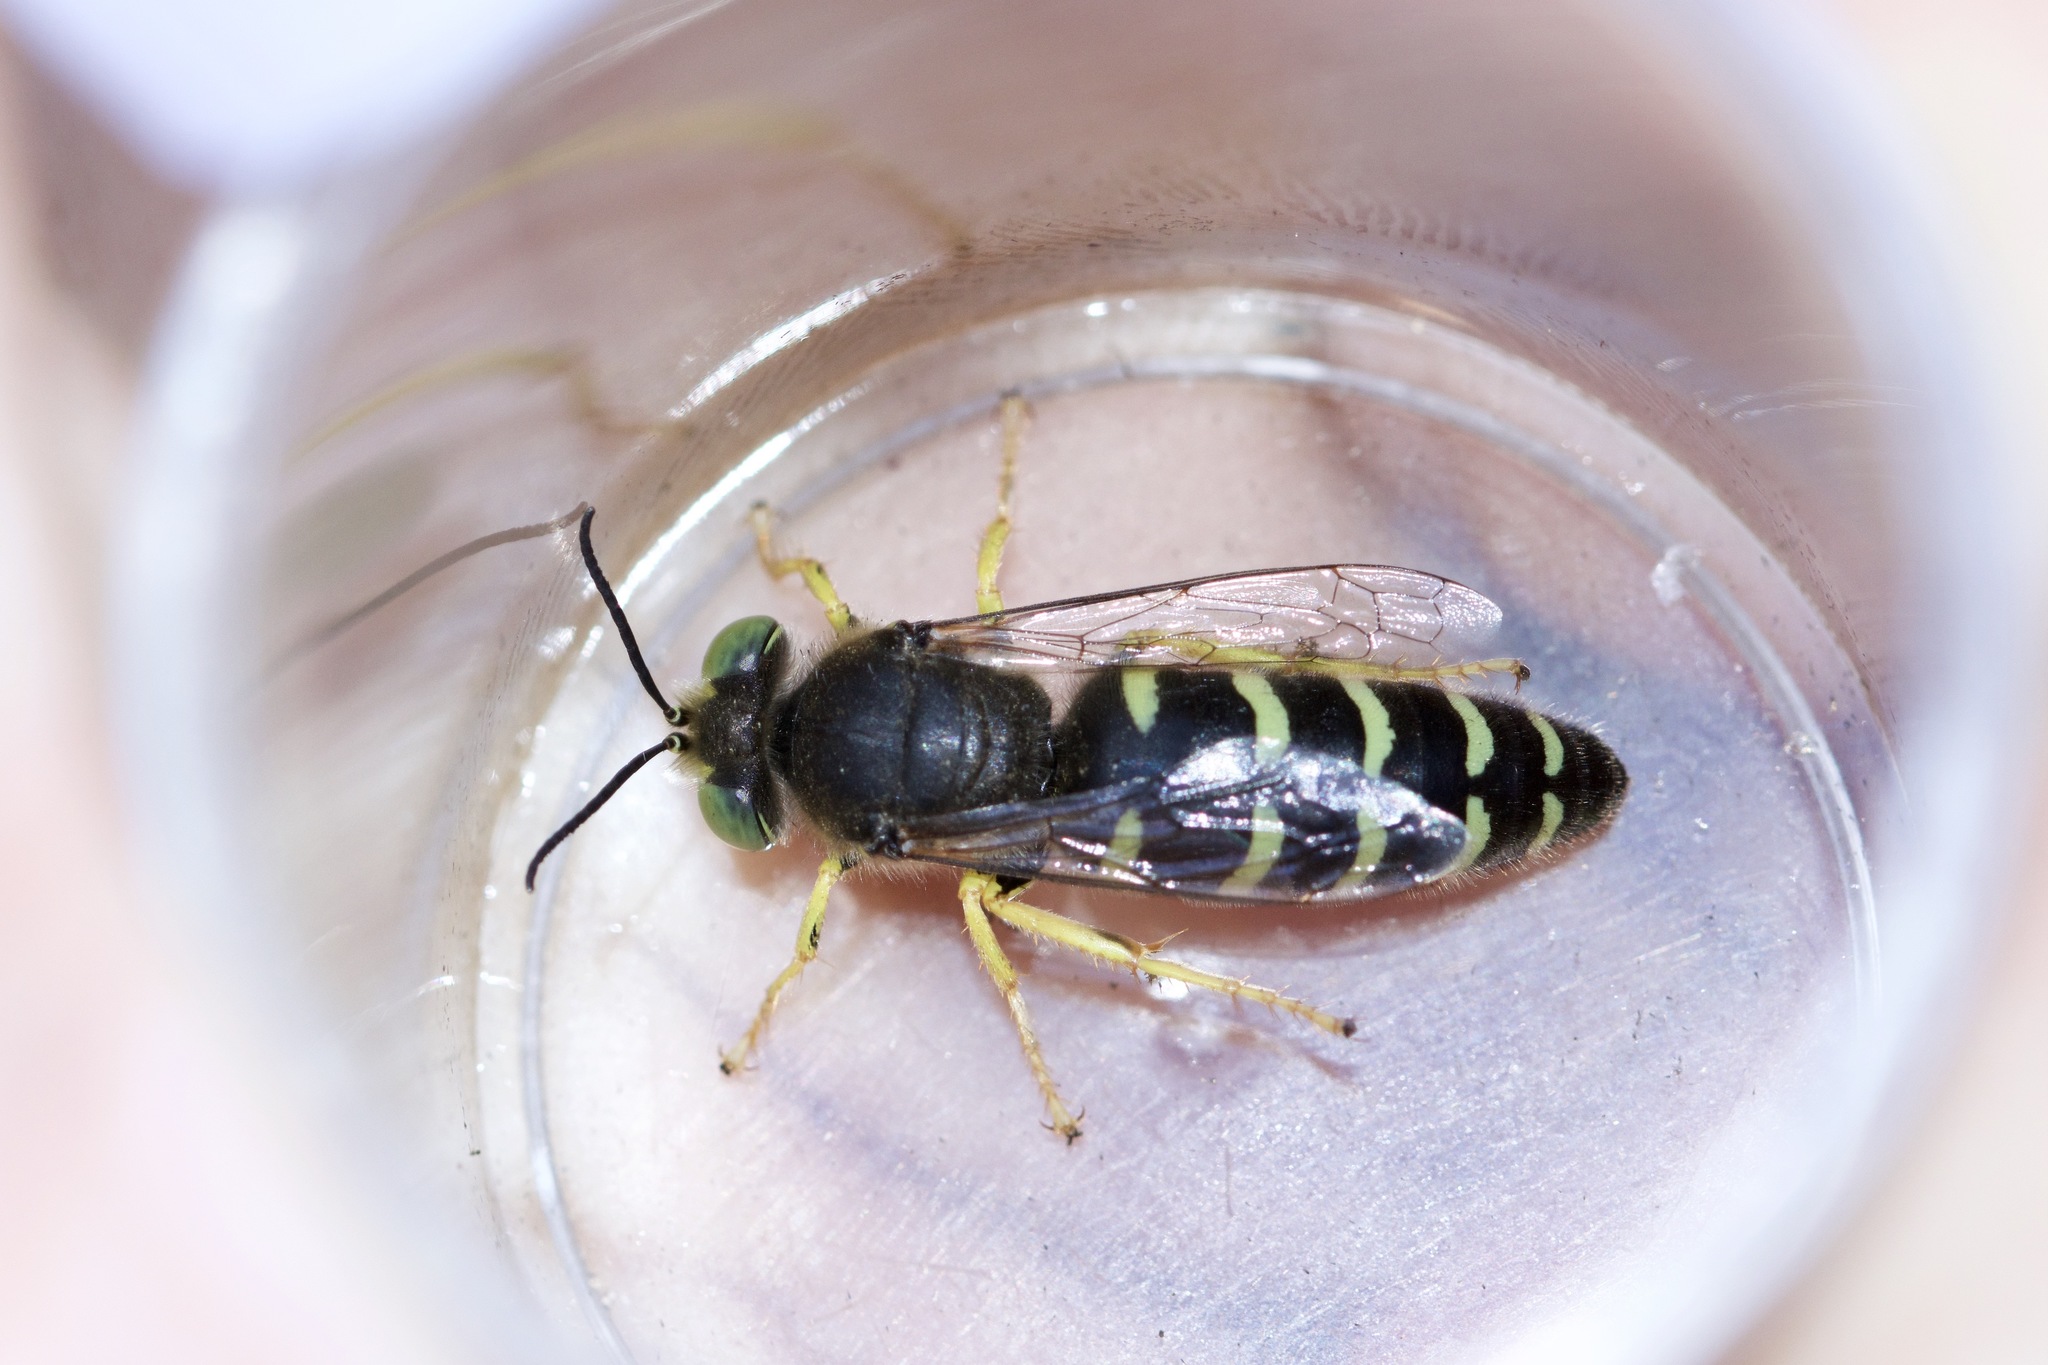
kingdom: Animalia
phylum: Arthropoda
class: Insecta
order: Hymenoptera
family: Crabronidae
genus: Bembix
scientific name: Bembix americana
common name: American sand wasp
